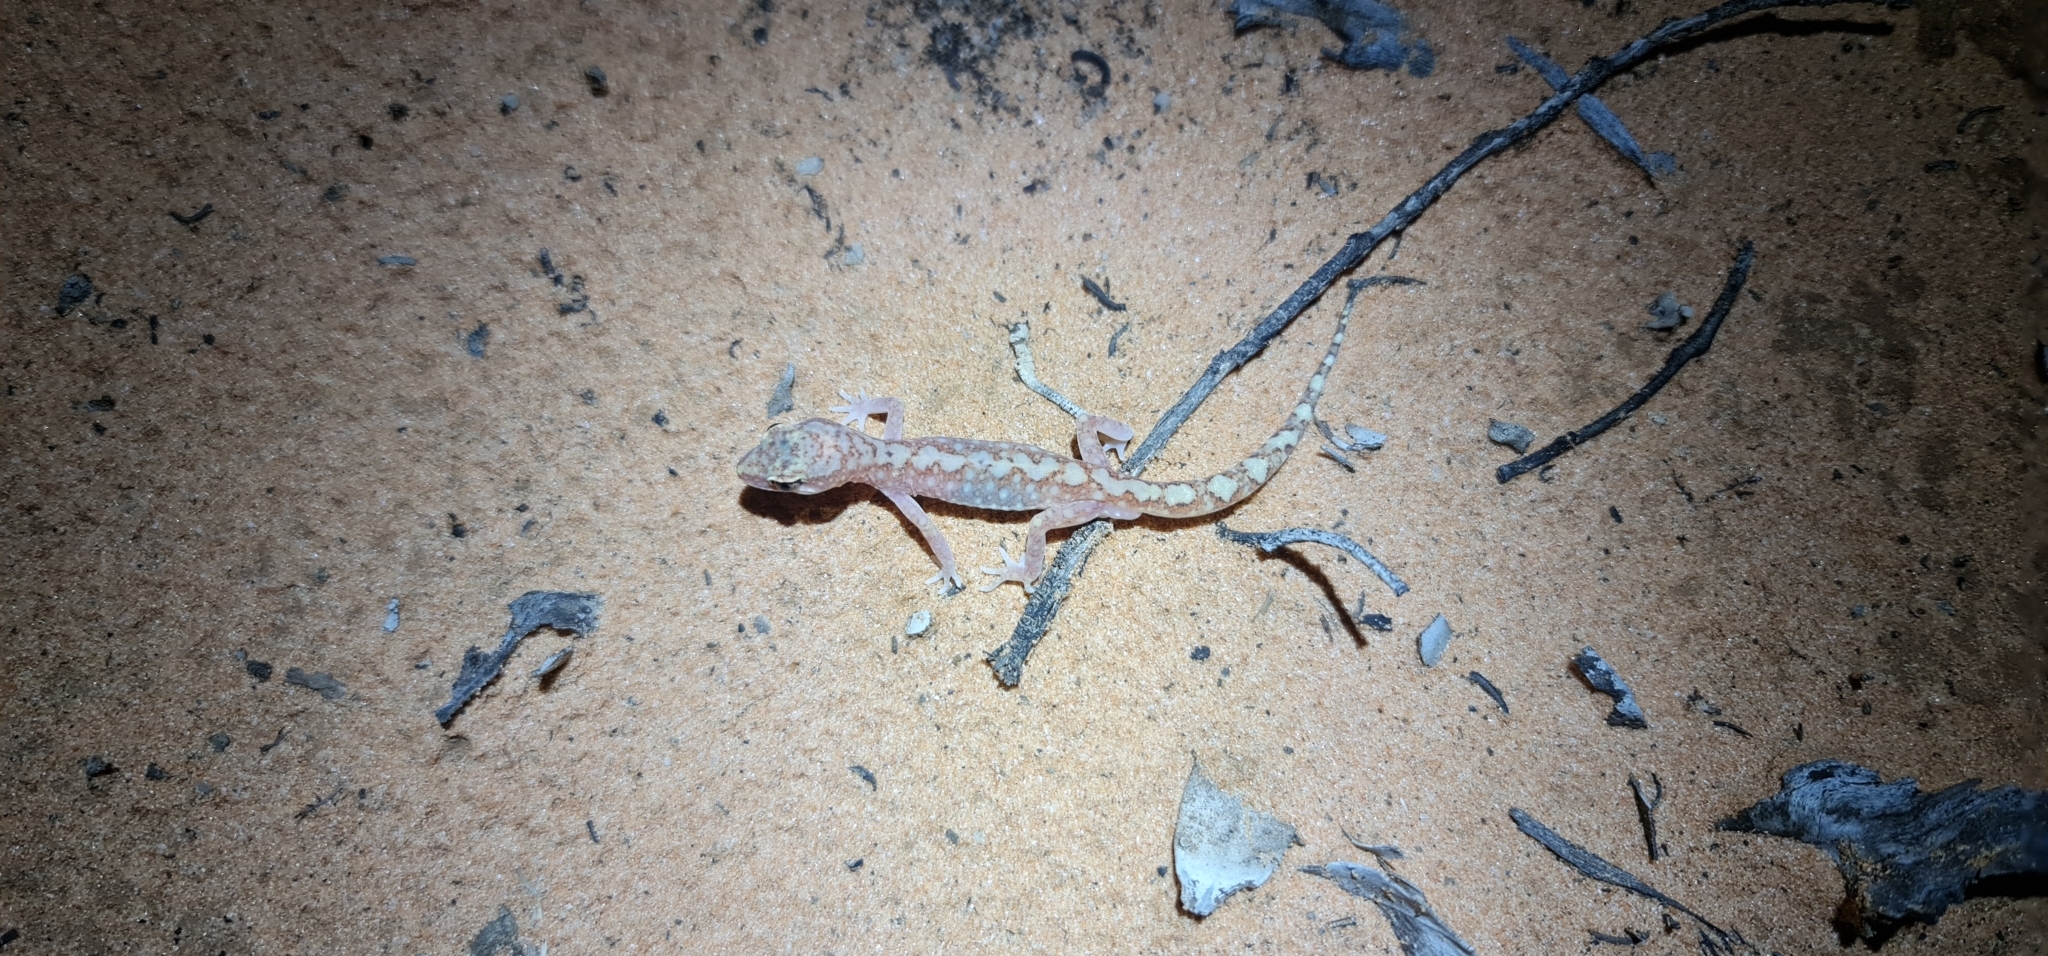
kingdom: Animalia
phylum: Chordata
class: Squamata
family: Diplodactylidae
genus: Lucasium
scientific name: Lucasium damaeum
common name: Beaded gecko
